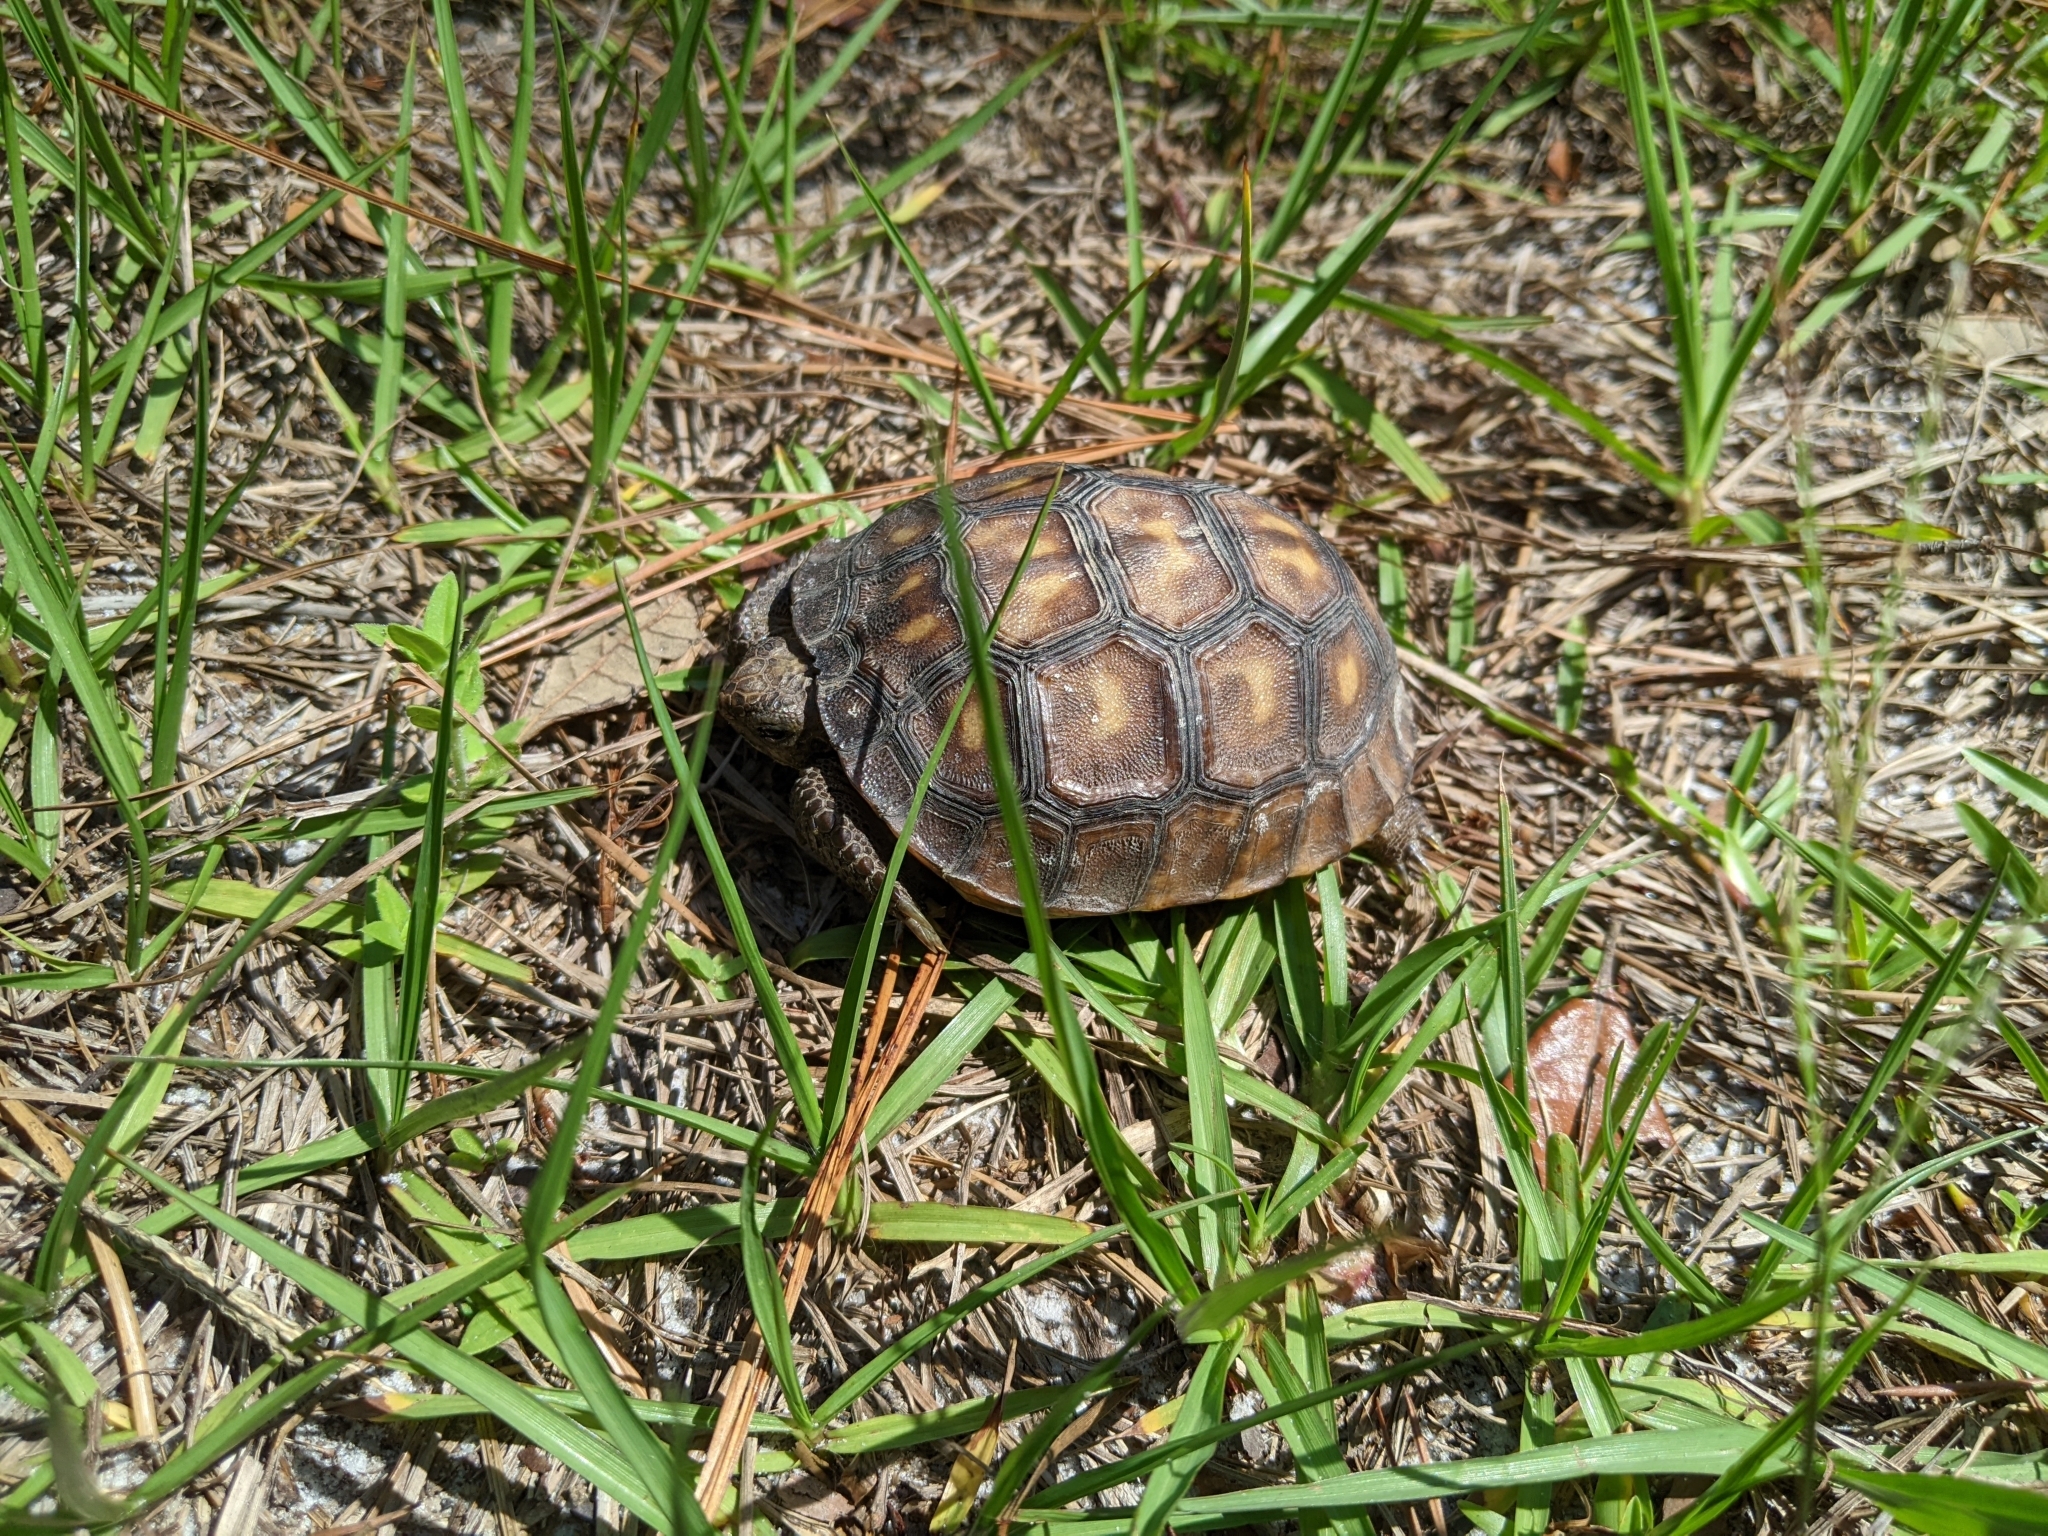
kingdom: Animalia
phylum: Chordata
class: Testudines
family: Testudinidae
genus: Gopherus
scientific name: Gopherus polyphemus
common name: Florida gopher tortoise
